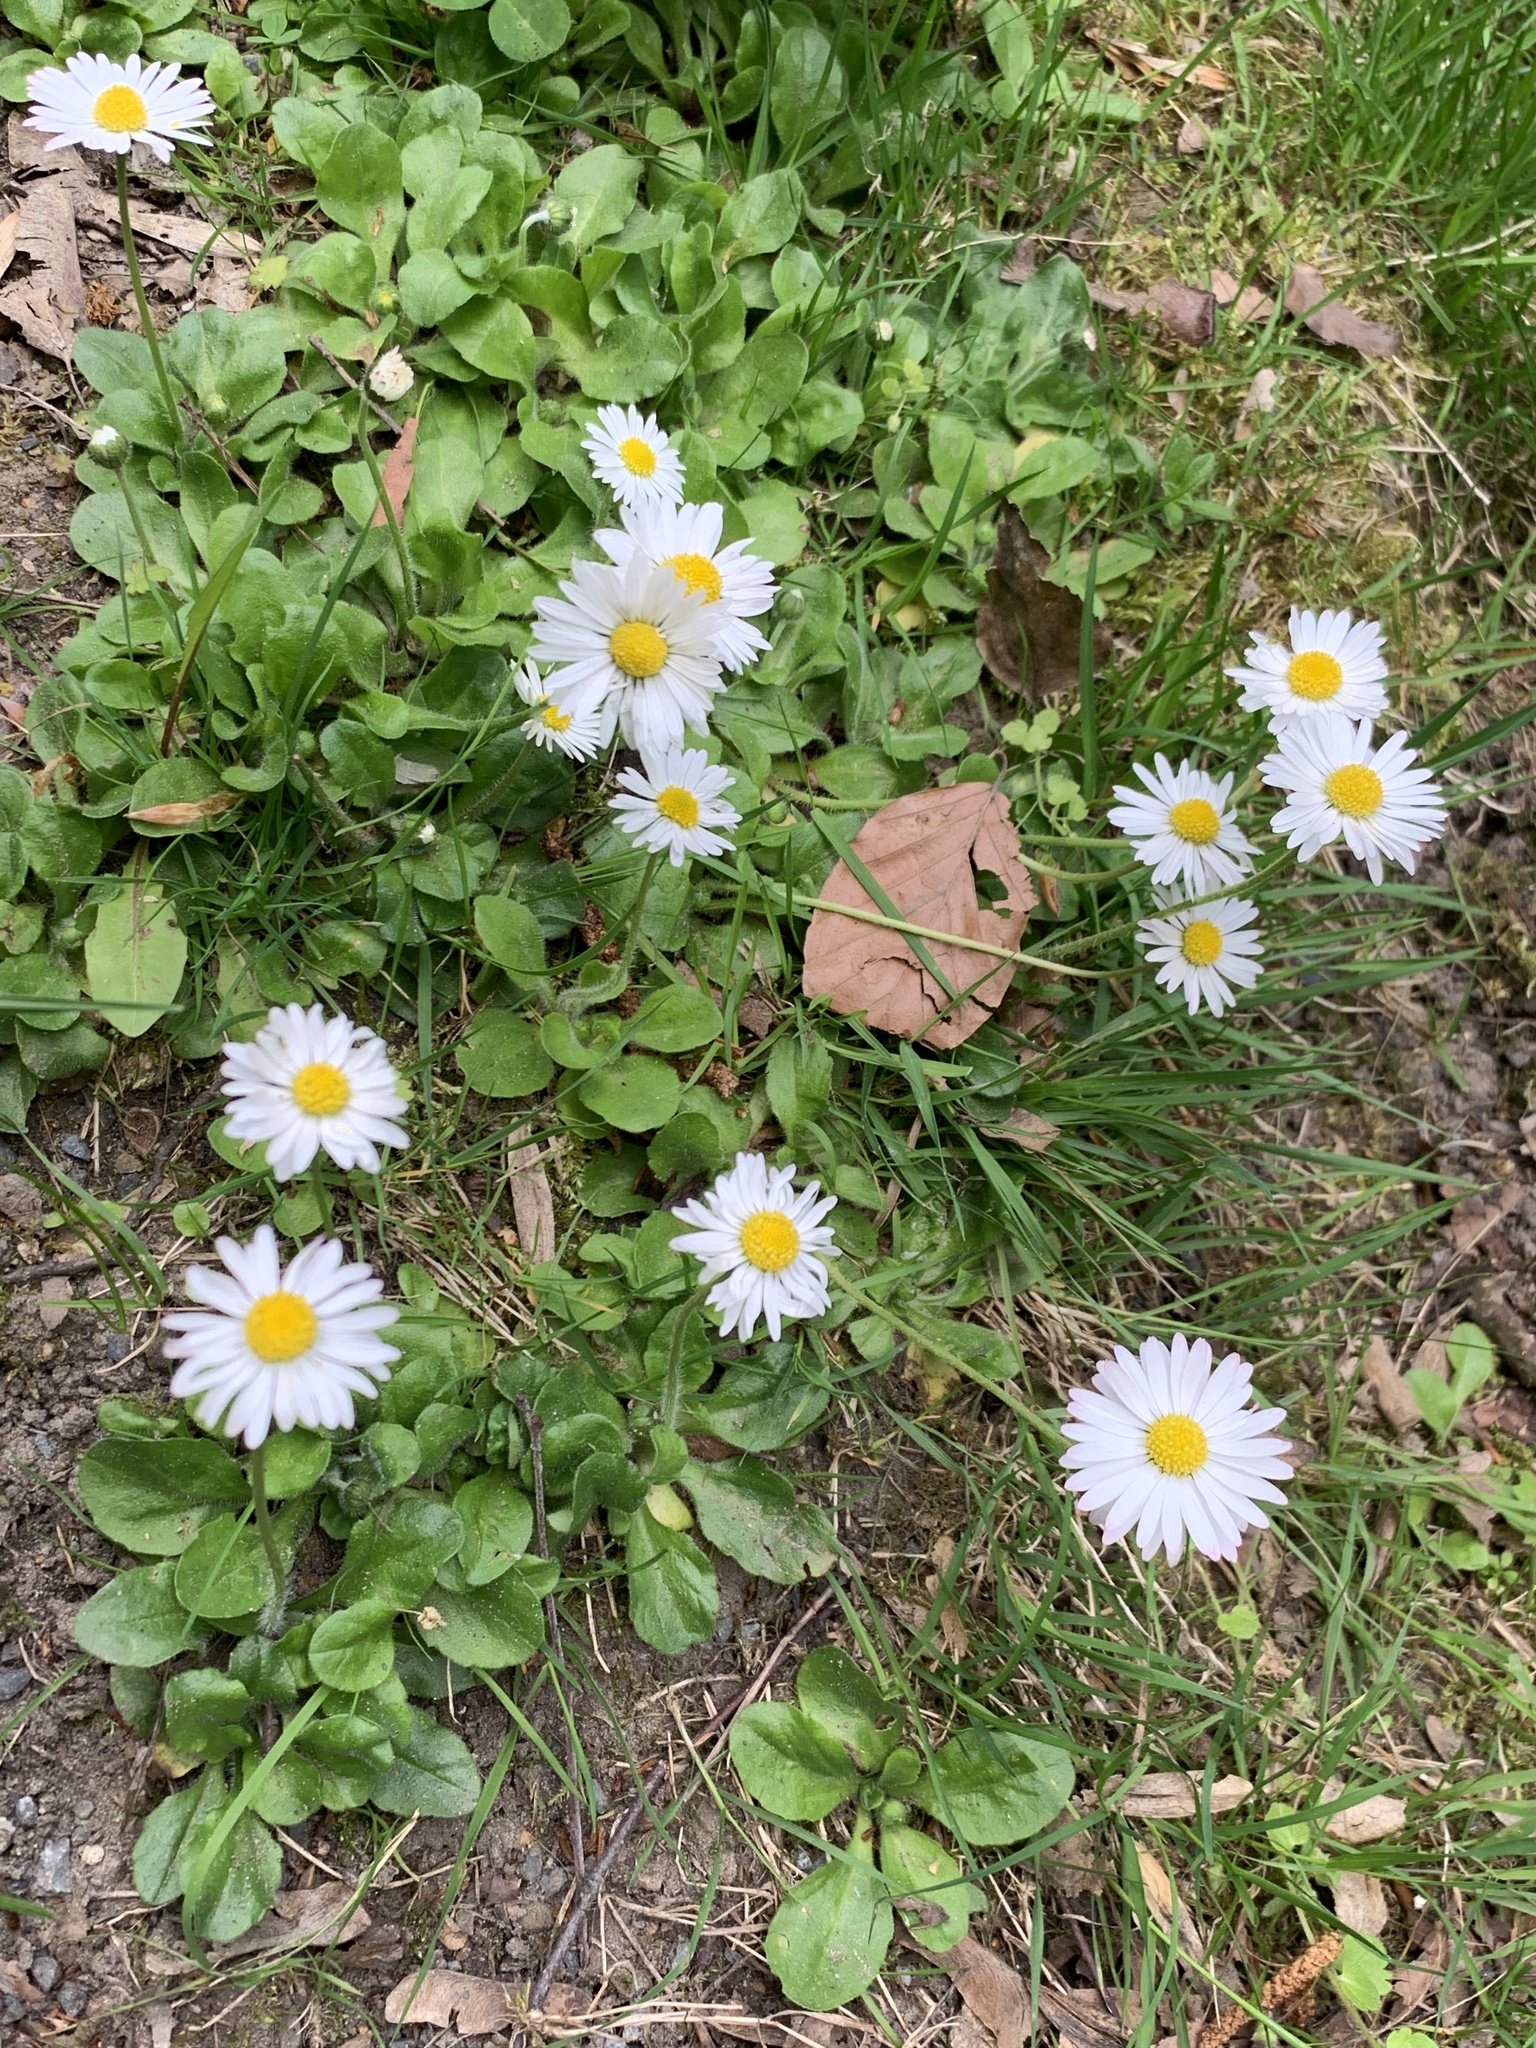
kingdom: Plantae
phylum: Tracheophyta
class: Magnoliopsida
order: Asterales
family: Asteraceae
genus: Bellis
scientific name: Bellis perennis
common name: Lawndaisy
